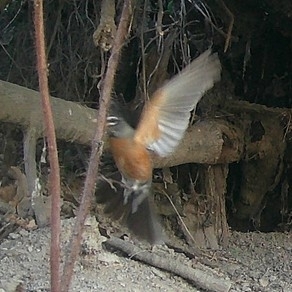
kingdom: Animalia
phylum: Chordata
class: Aves
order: Passeriformes
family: Turdidae
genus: Turdus
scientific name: Turdus migratorius
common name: American robin
